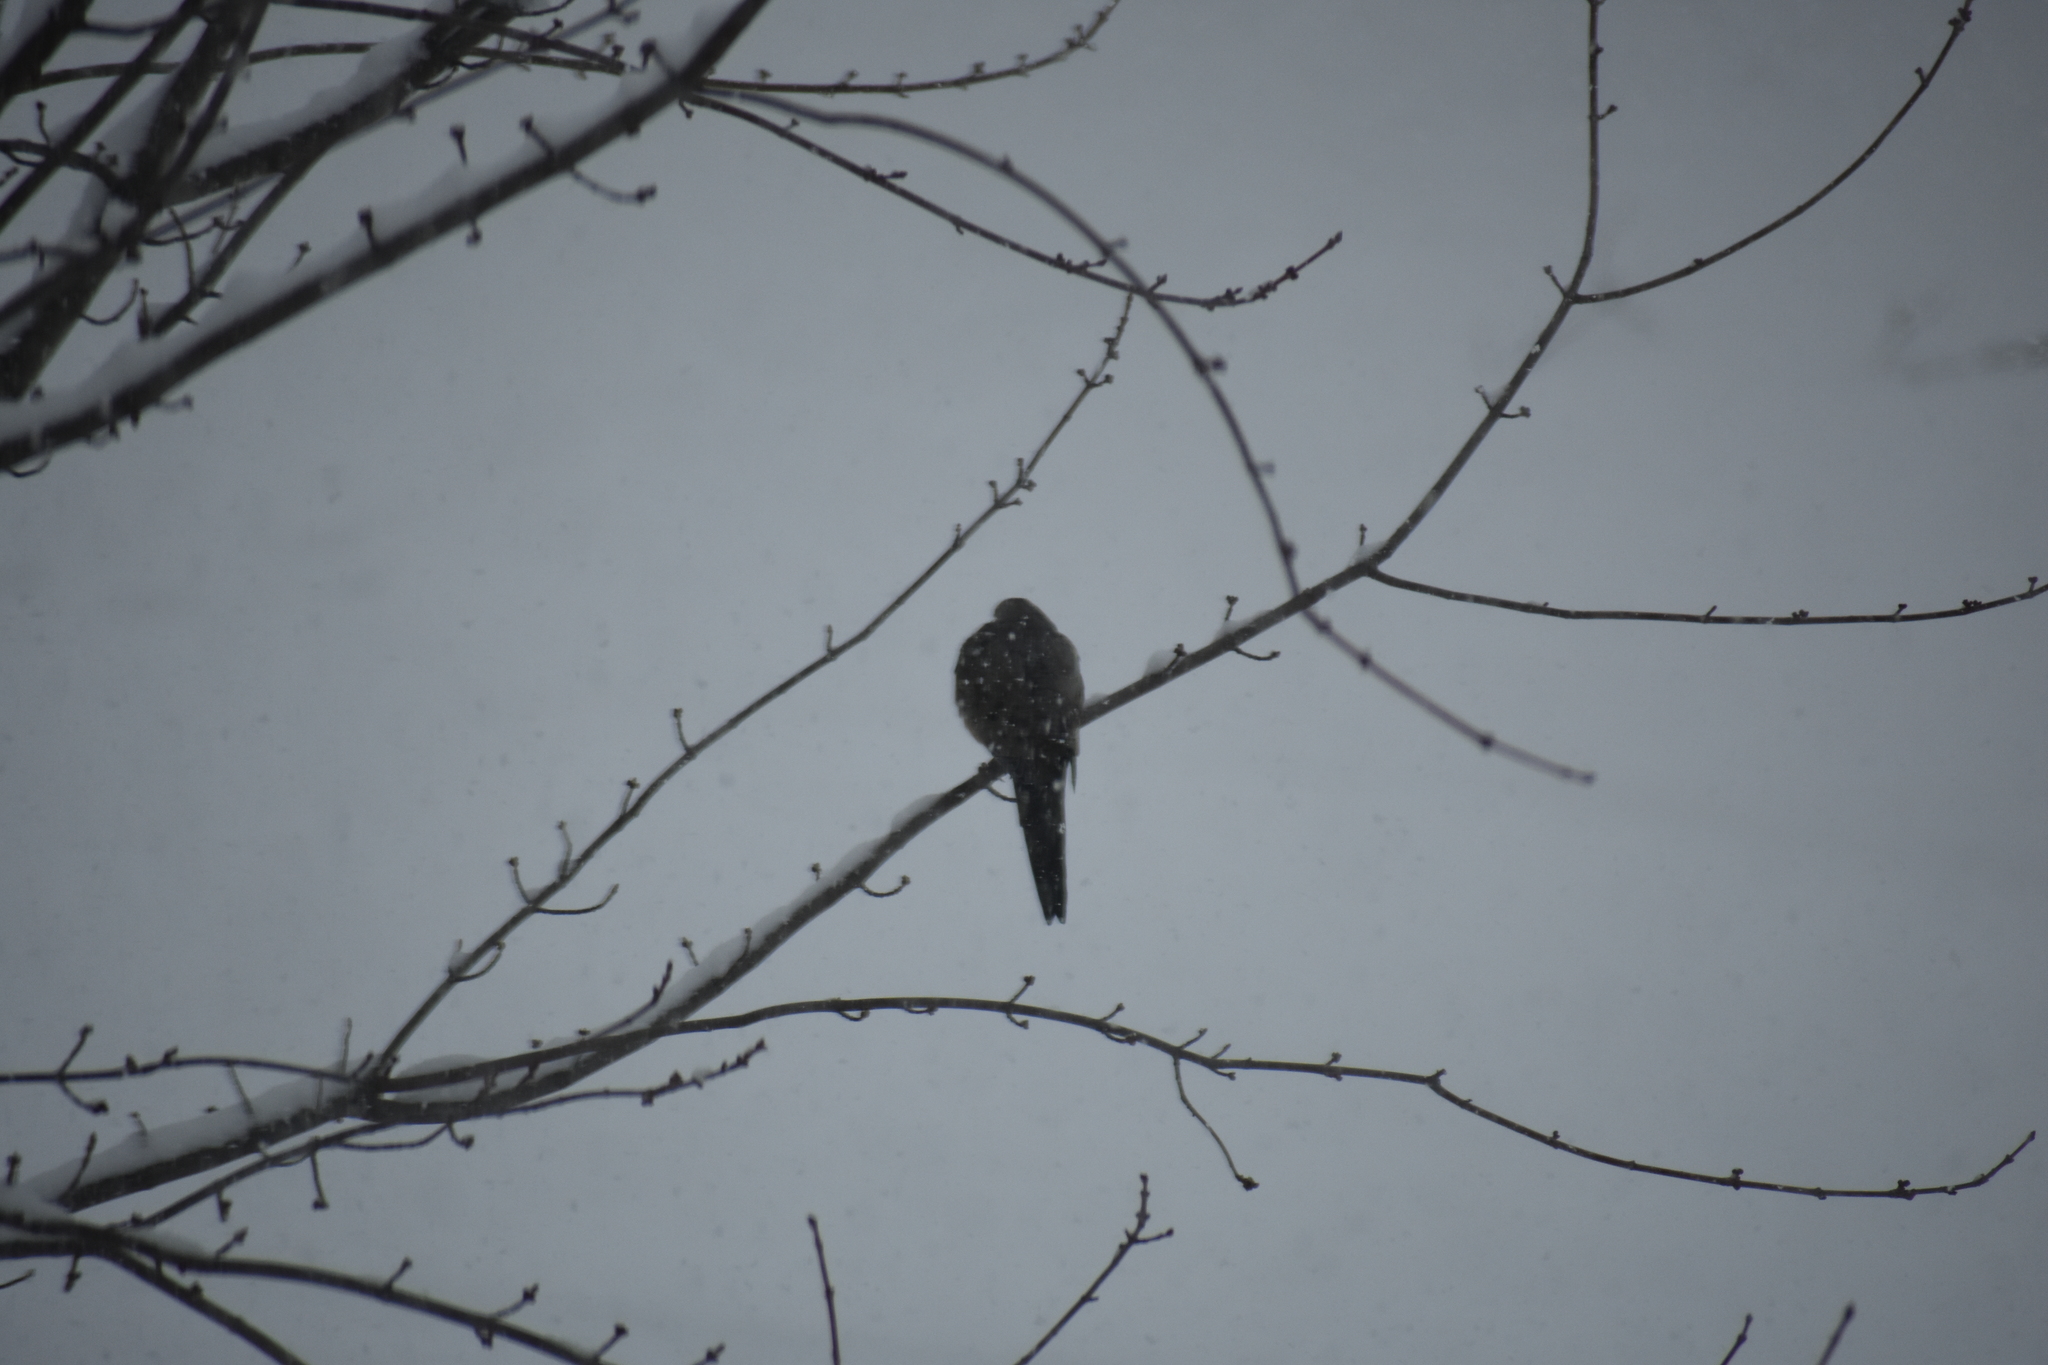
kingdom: Animalia
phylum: Chordata
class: Aves
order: Columbiformes
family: Columbidae
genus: Zenaida
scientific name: Zenaida macroura
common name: Mourning dove
